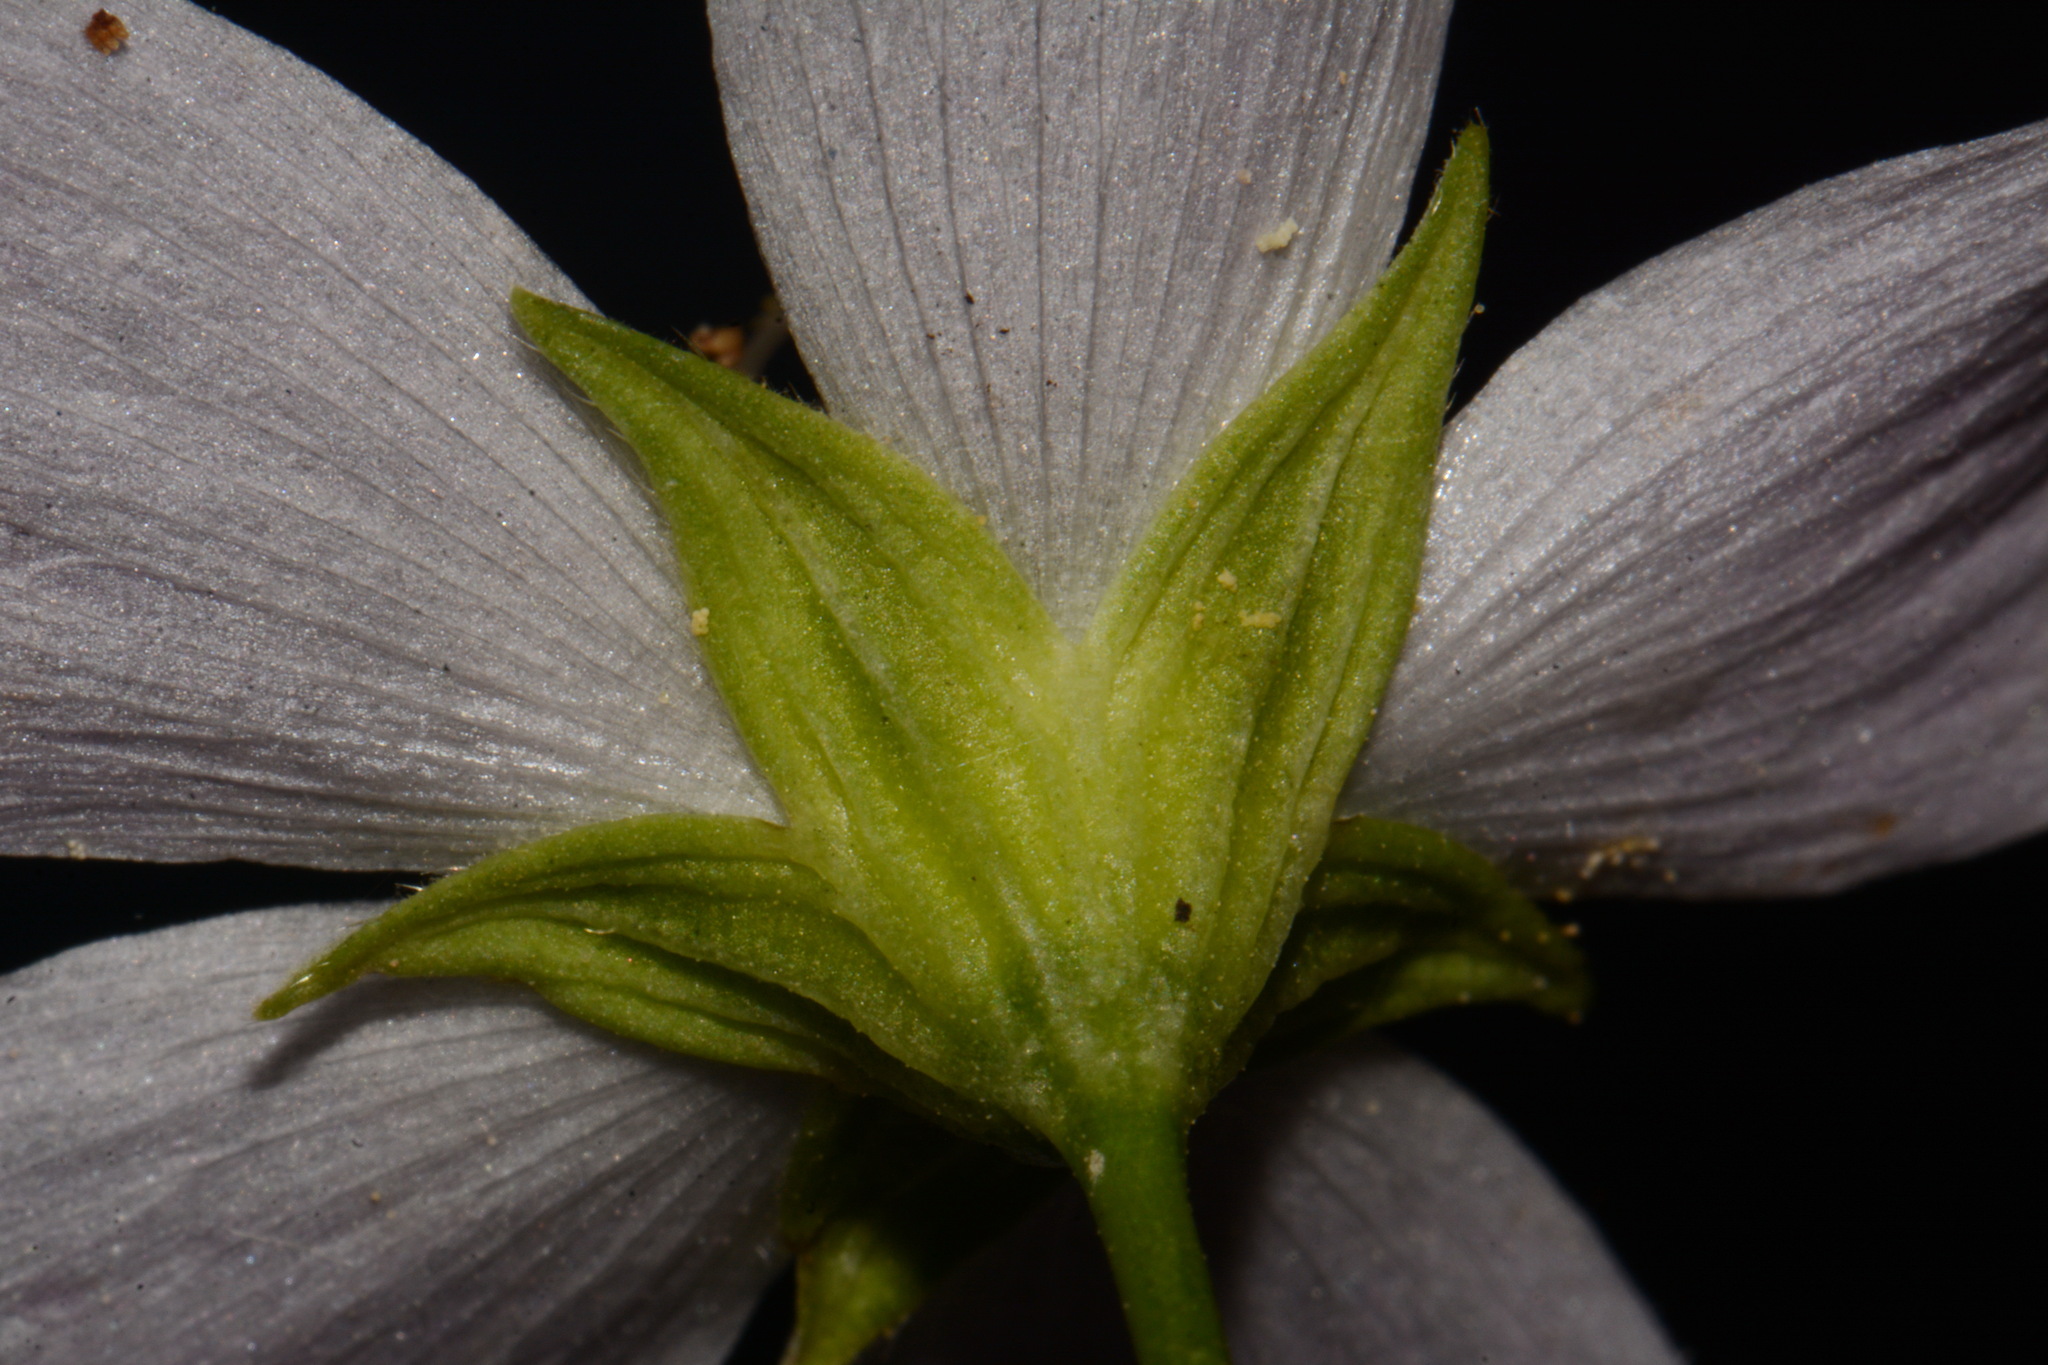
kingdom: Plantae
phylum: Tracheophyta
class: Magnoliopsida
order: Malvales
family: Malvaceae
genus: Callirhoe
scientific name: Callirhoe alcaeoides
